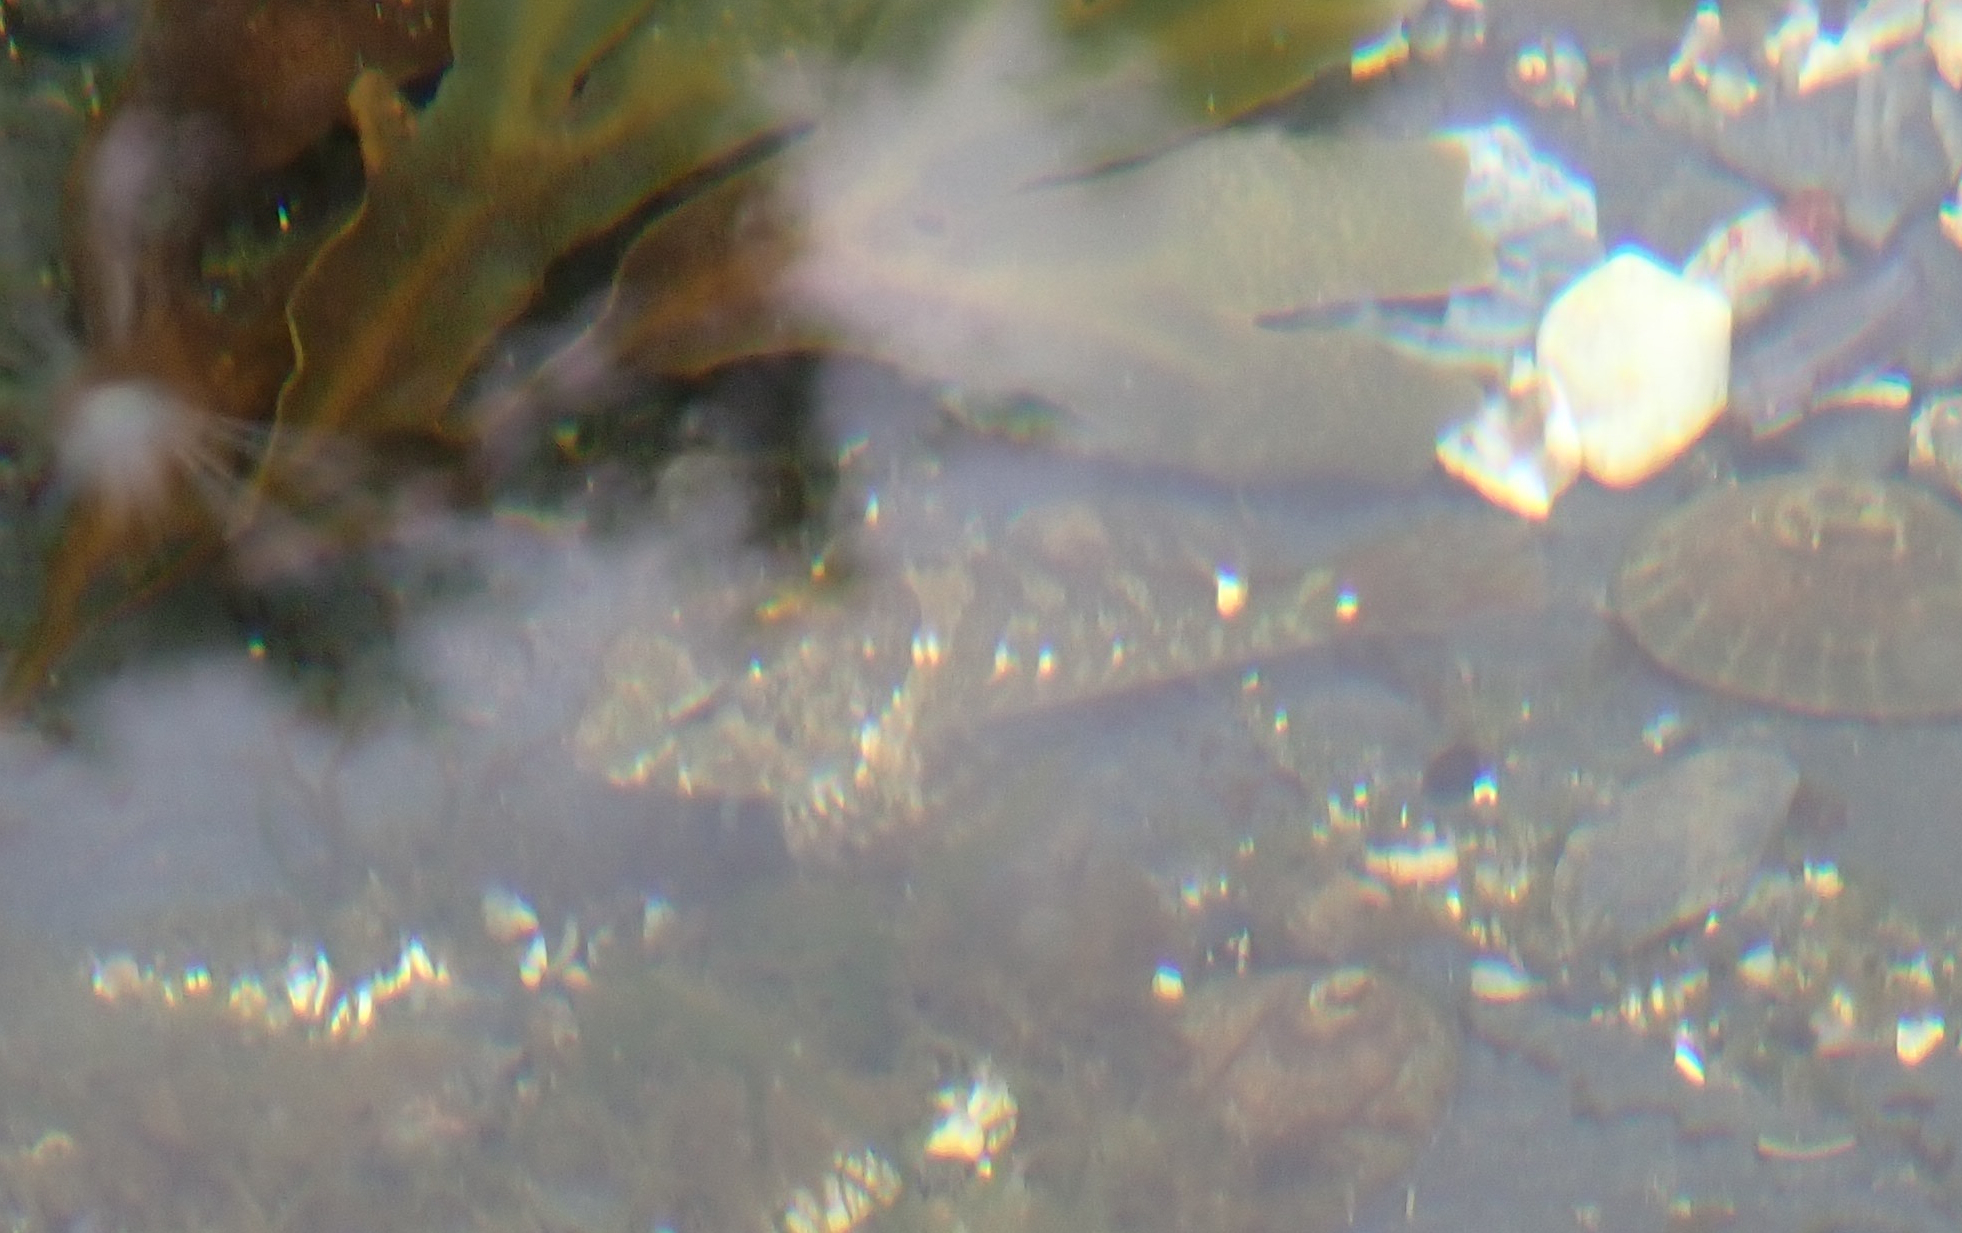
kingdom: Animalia
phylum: Chordata
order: Scorpaeniformes
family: Cottidae
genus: Oligocottus
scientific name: Oligocottus maculosus
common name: Tidepool sculpin
